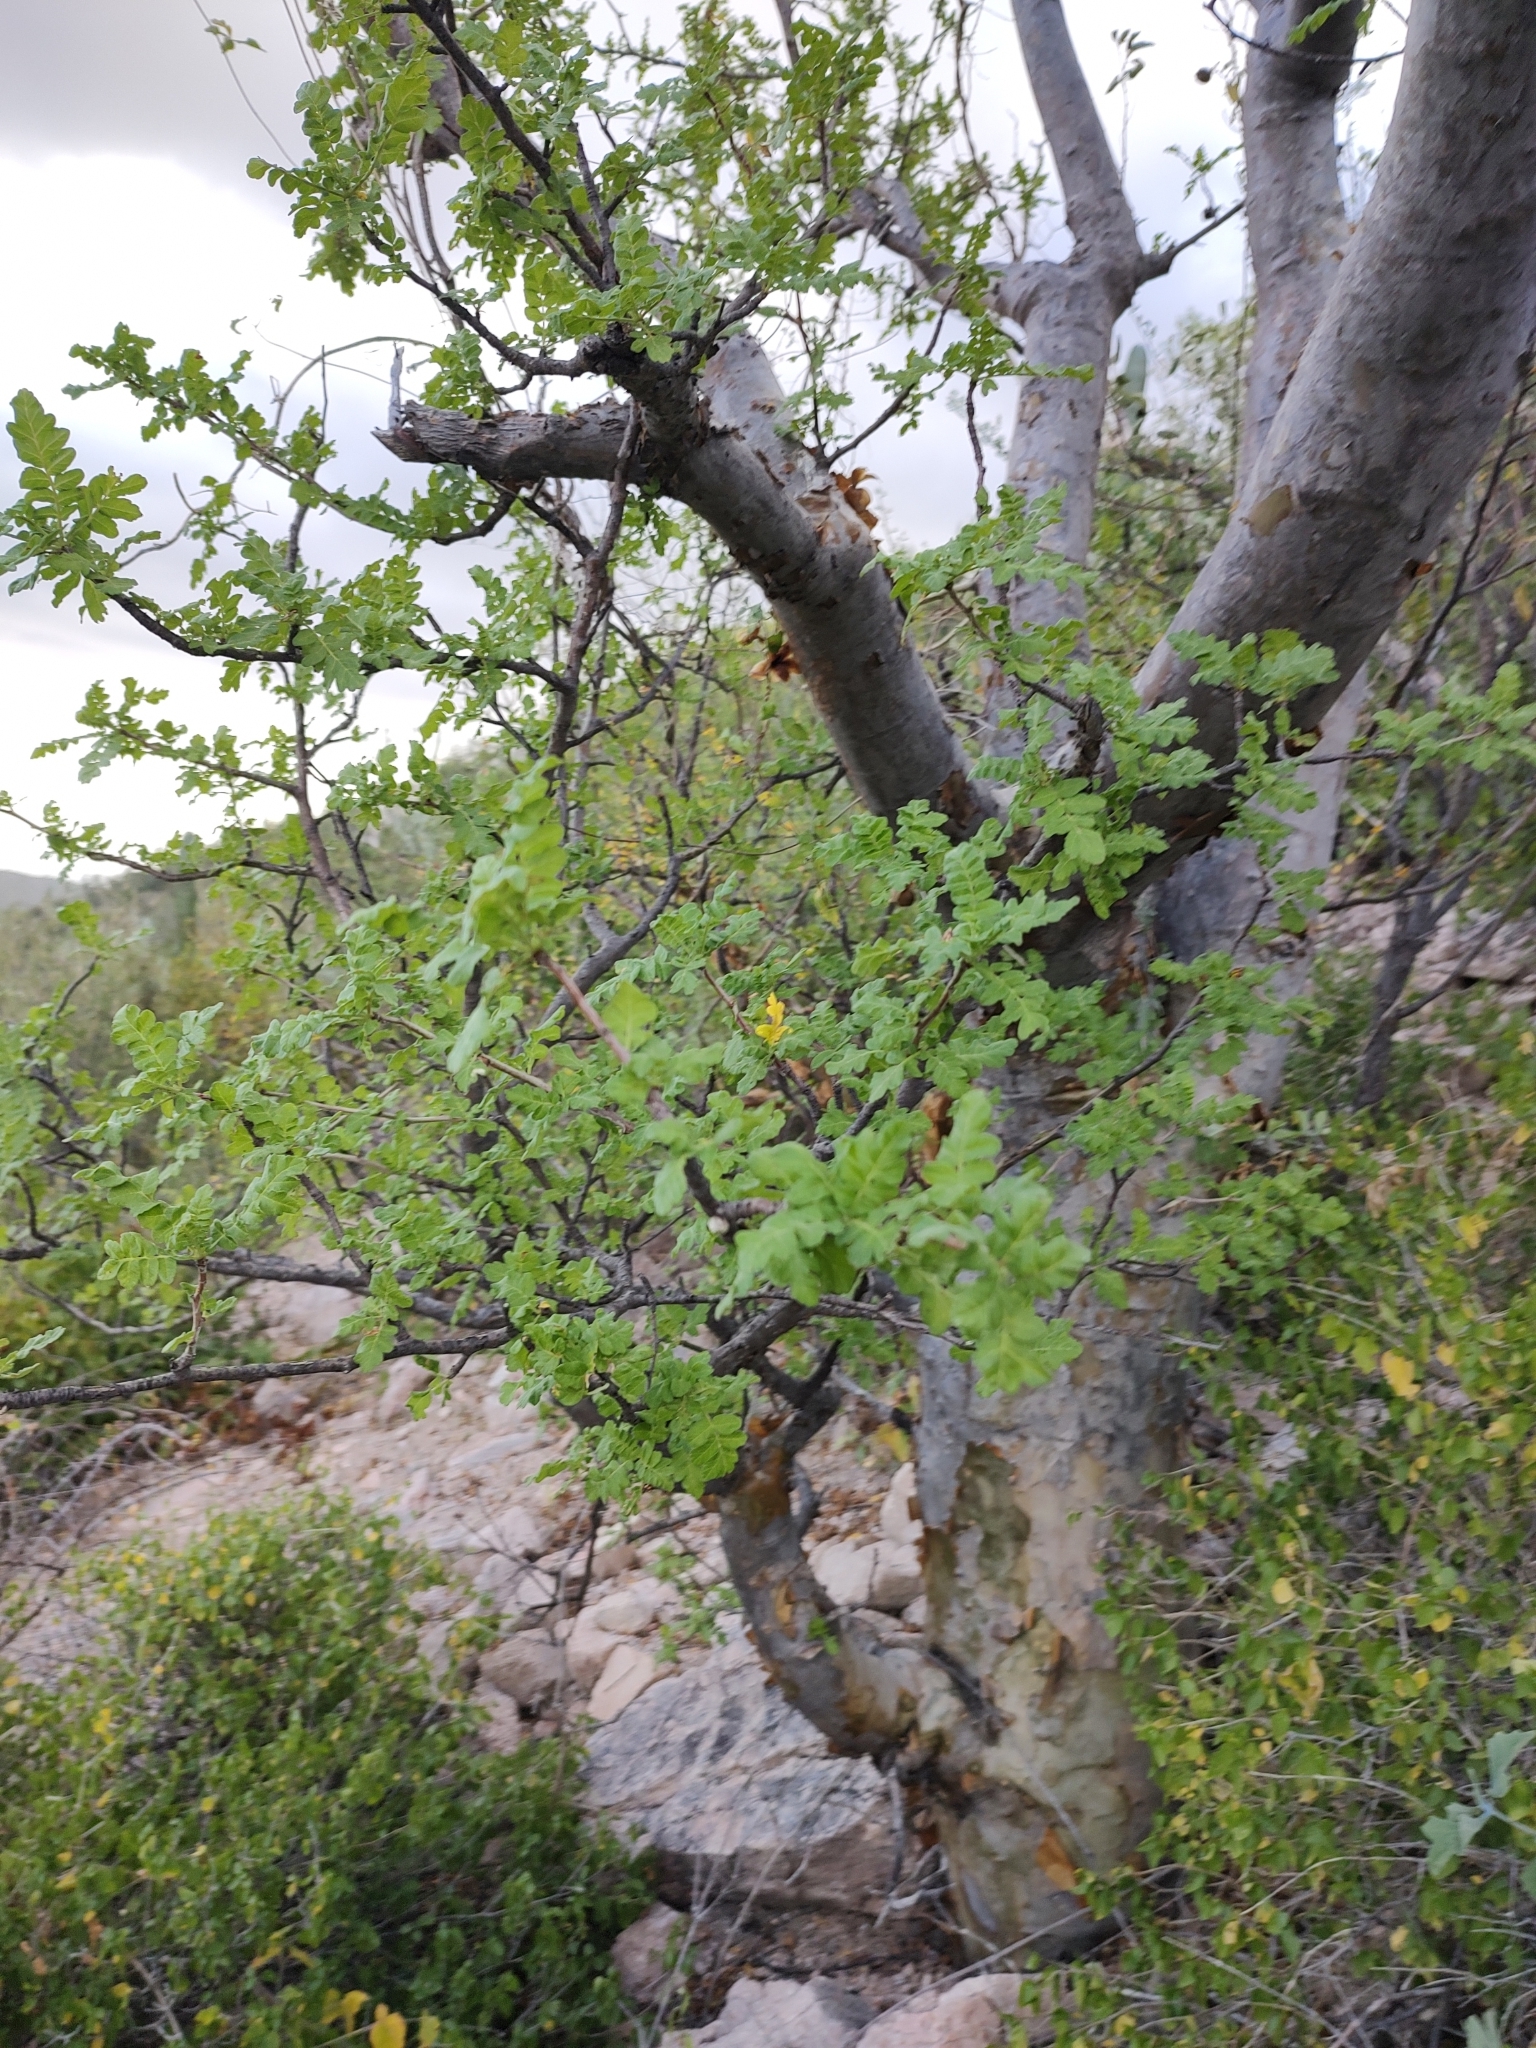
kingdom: Plantae
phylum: Tracheophyta
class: Magnoliopsida
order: Sapindales
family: Anacardiaceae
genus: Pachycormus
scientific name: Pachycormus discolor
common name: Succulent elephant trees
